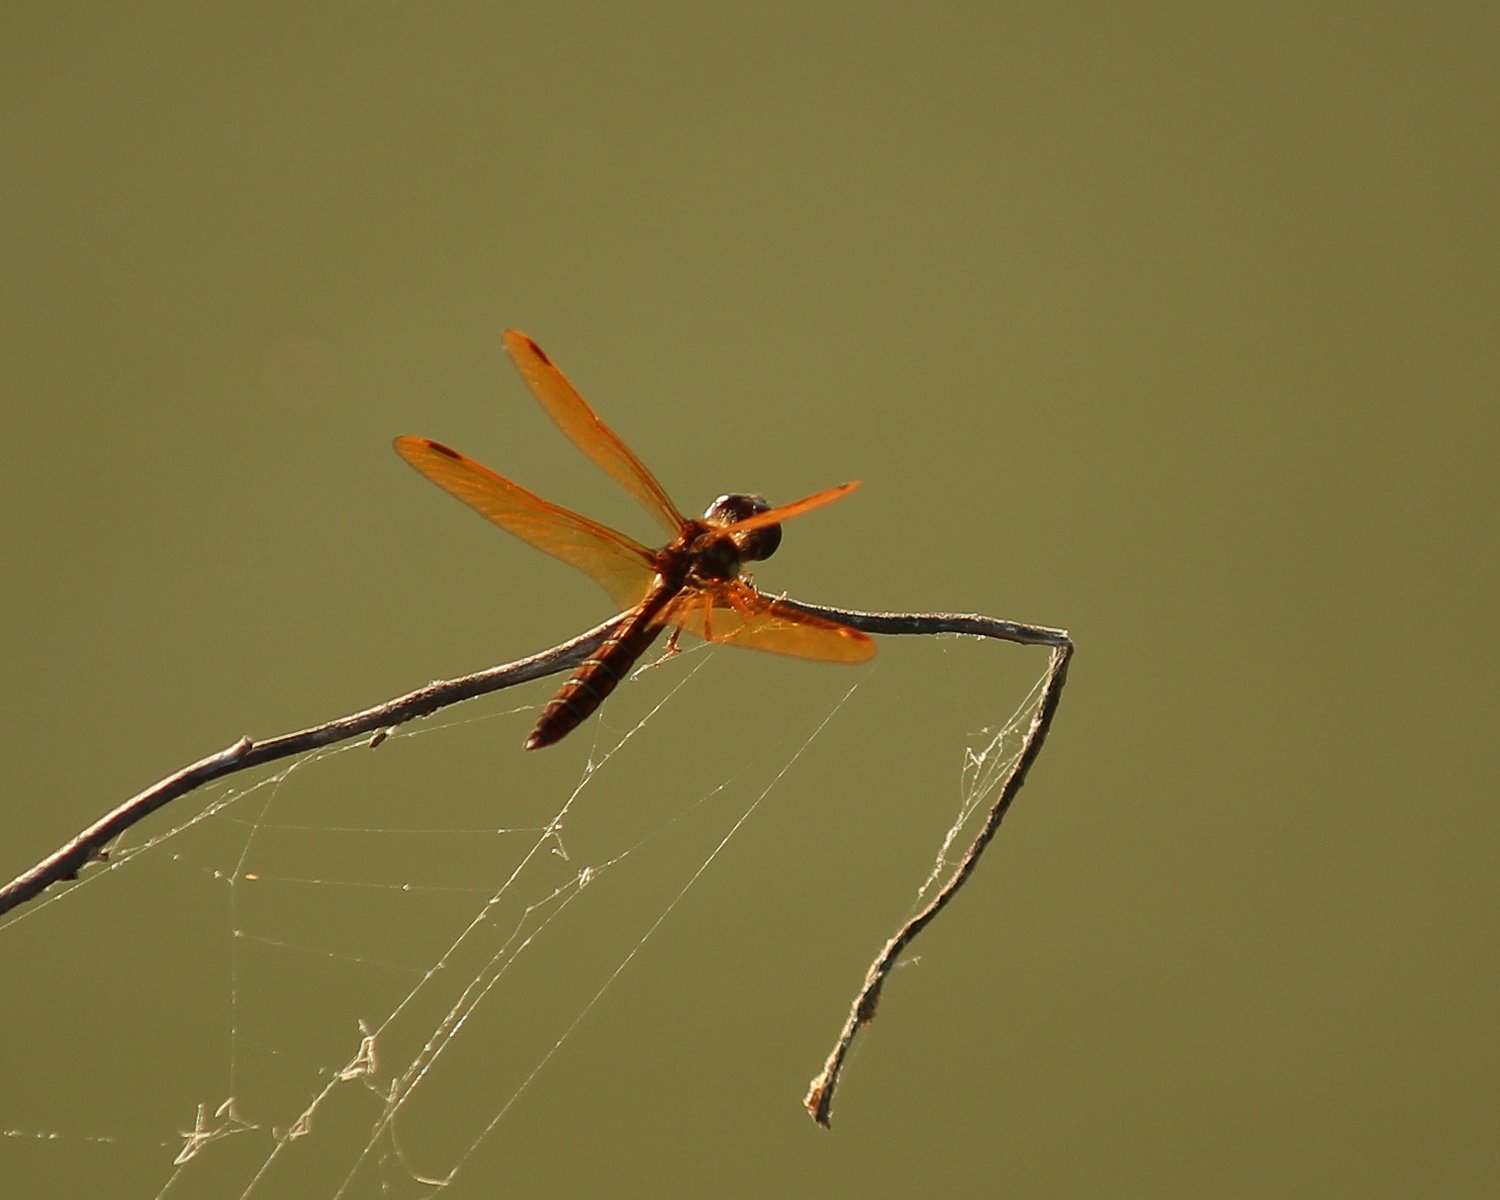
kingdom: Animalia
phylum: Arthropoda
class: Insecta
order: Odonata
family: Libellulidae
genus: Perithemis
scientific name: Perithemis tenera
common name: Eastern amberwing
